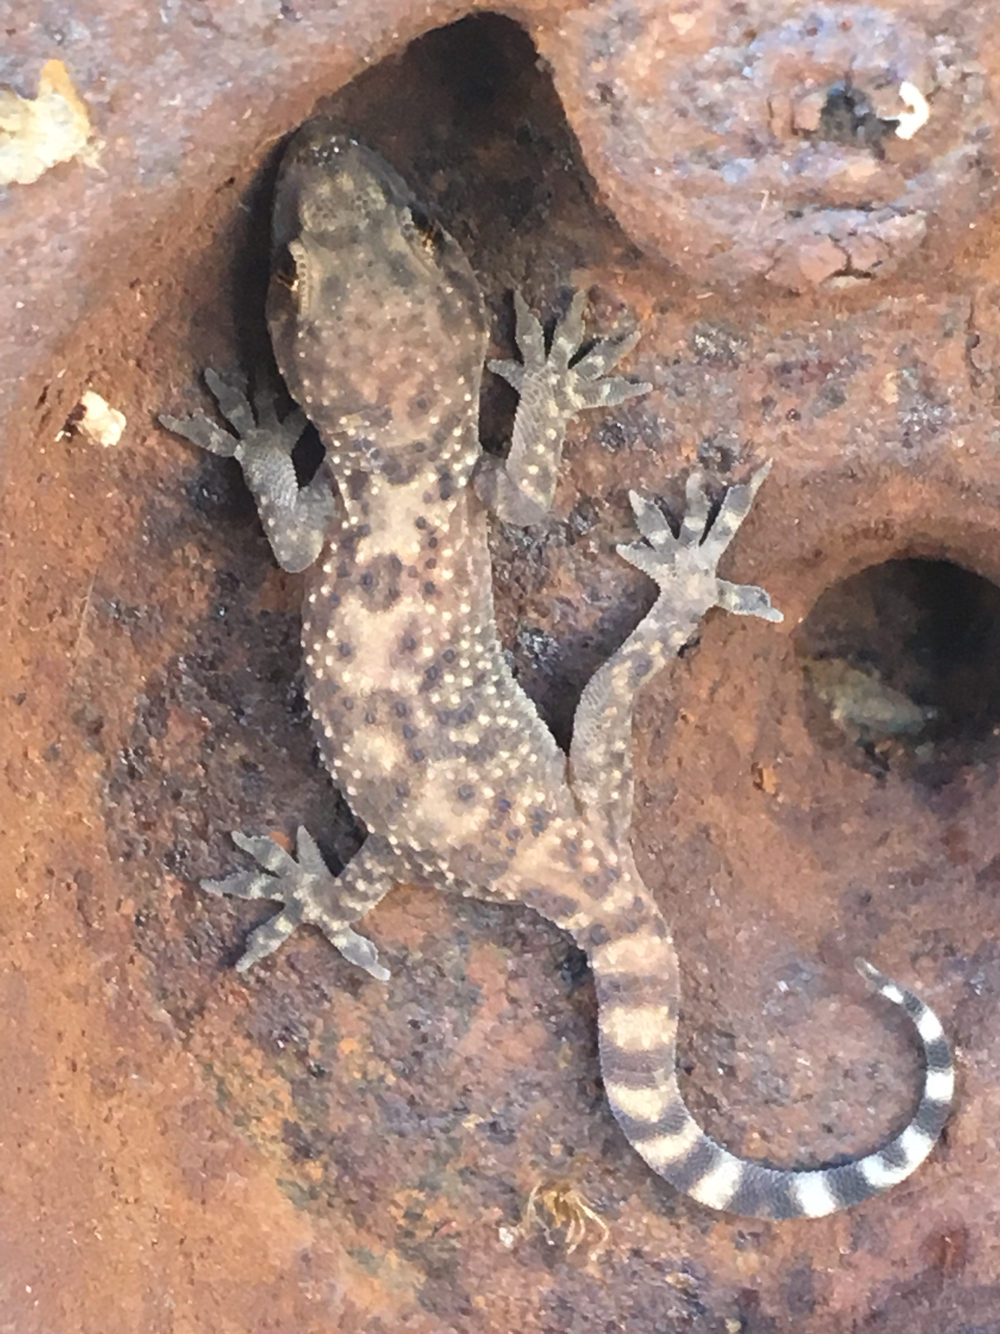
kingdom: Animalia
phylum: Chordata
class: Squamata
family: Gekkonidae
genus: Hemidactylus
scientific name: Hemidactylus turcicus
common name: Turkish gecko
